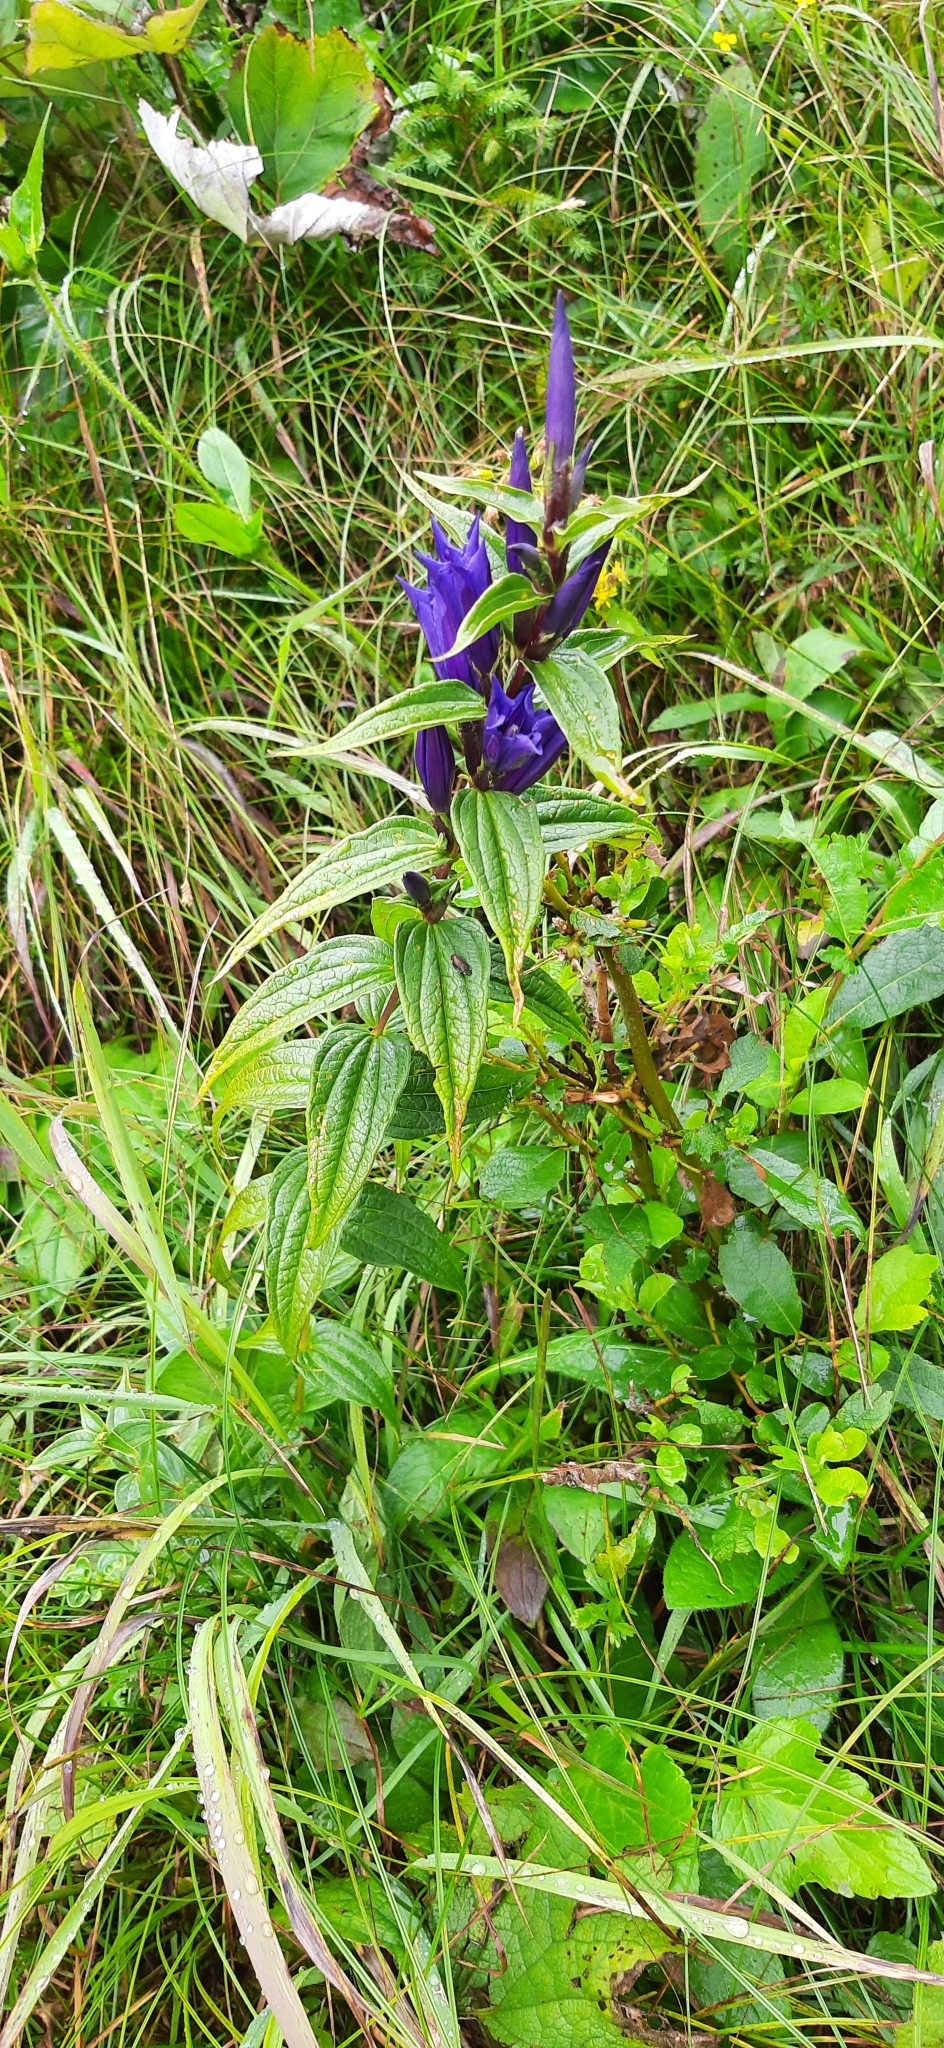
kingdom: Plantae
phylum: Tracheophyta
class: Magnoliopsida
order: Gentianales
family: Gentianaceae
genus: Gentiana
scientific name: Gentiana asclepiadea
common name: Willow gentian
